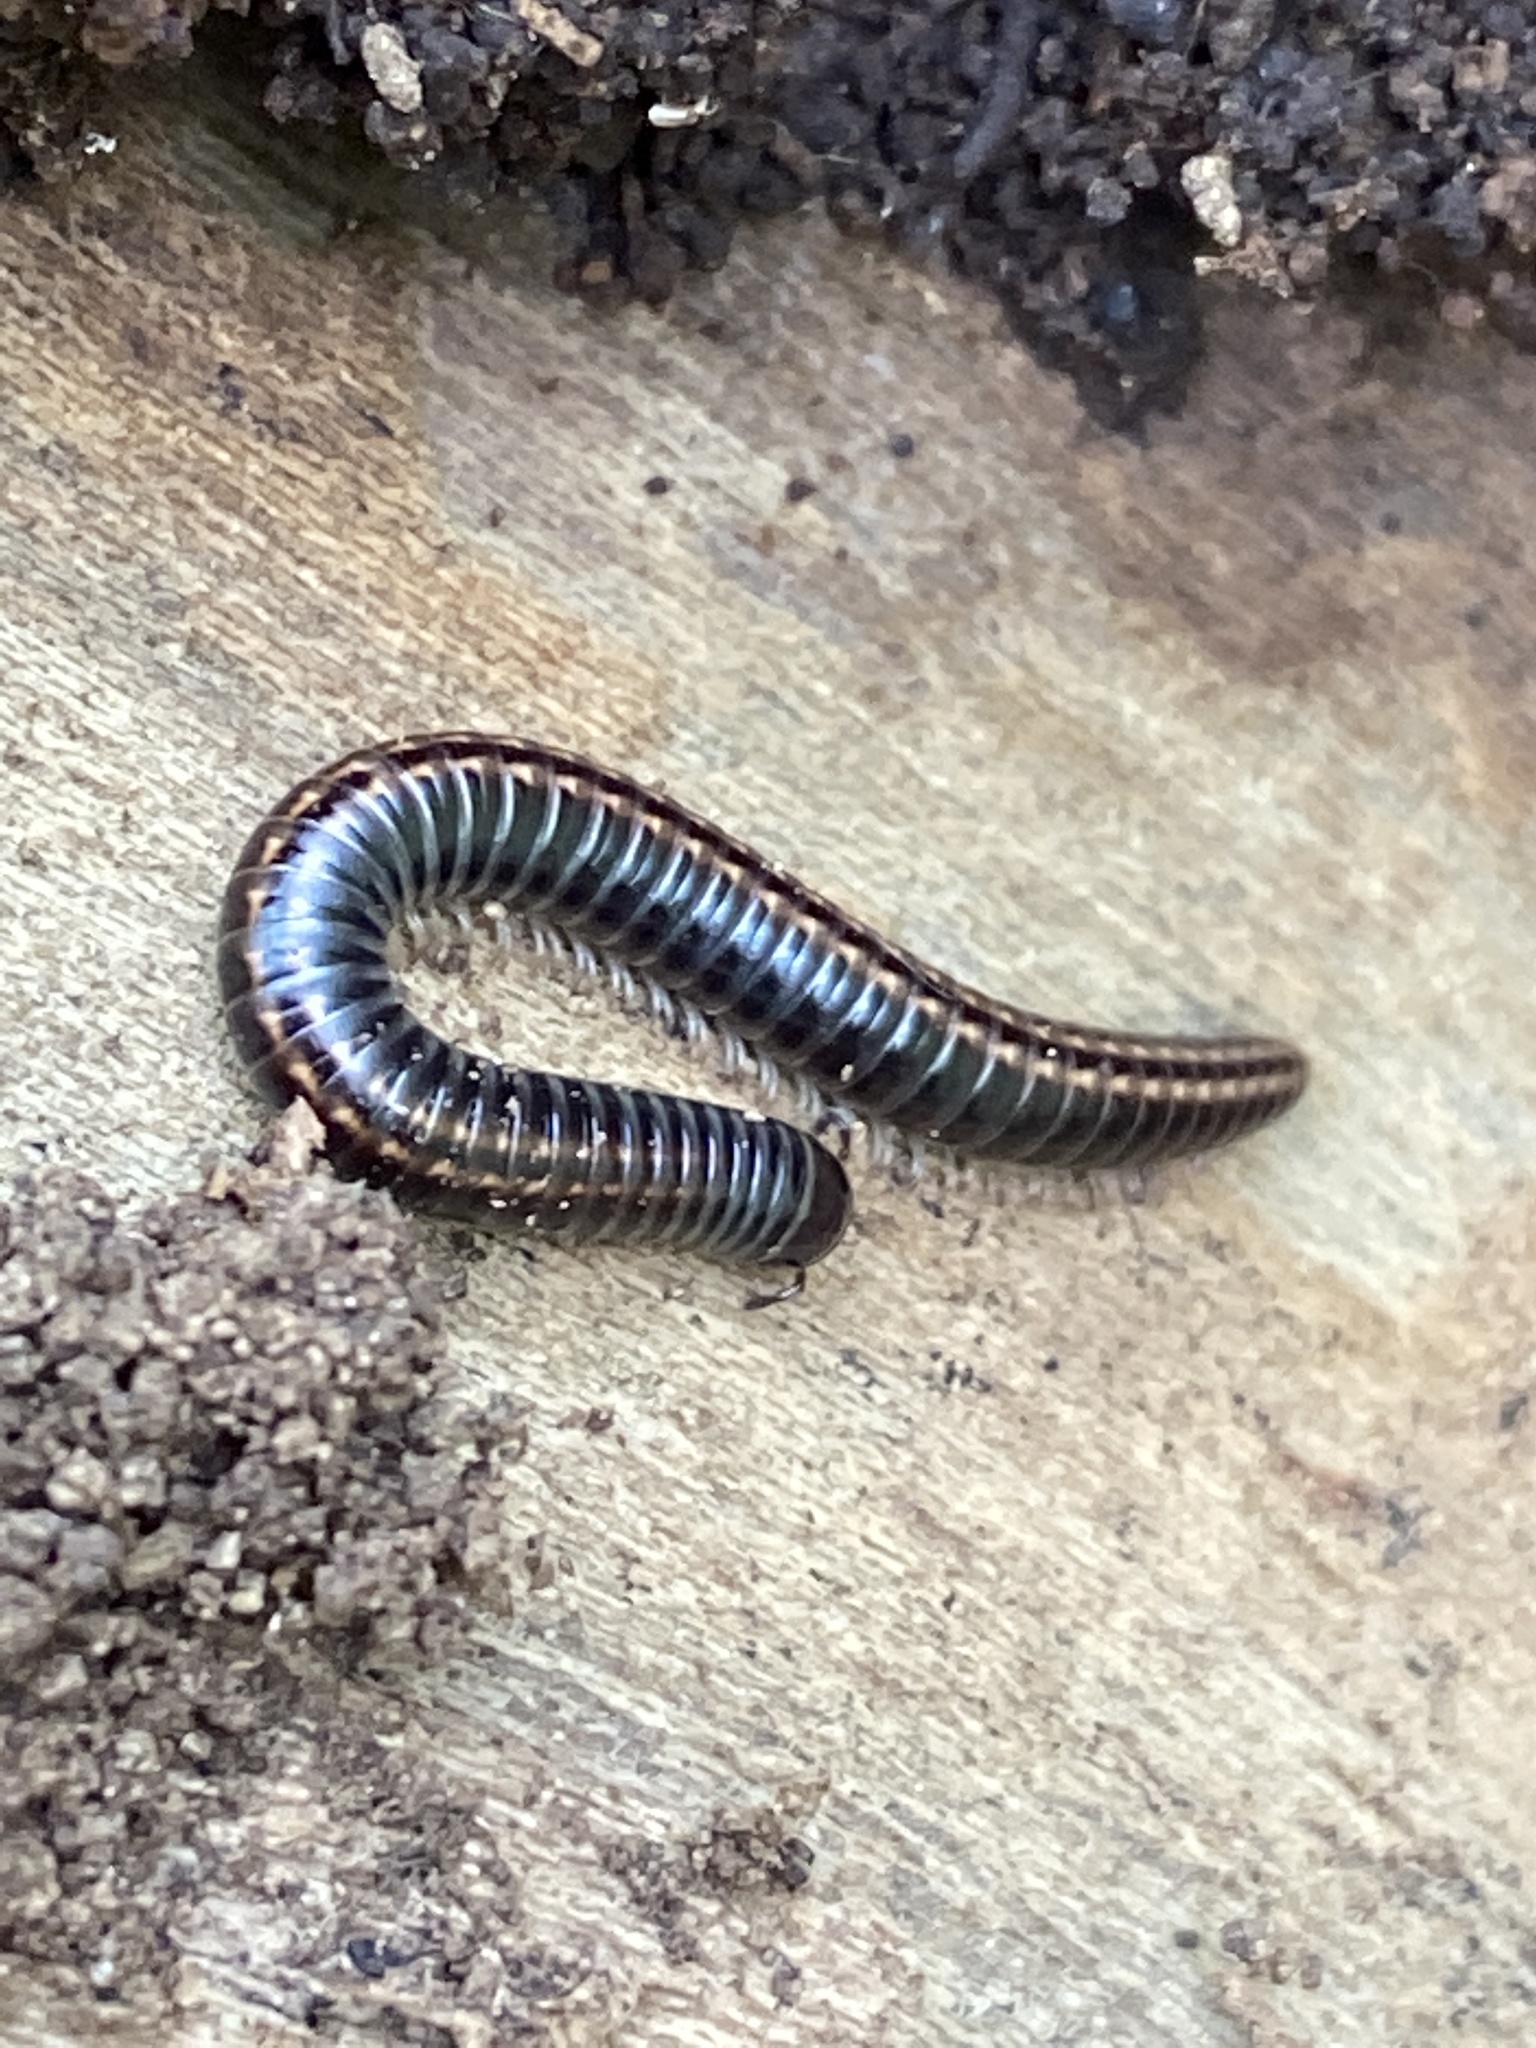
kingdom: Animalia
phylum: Arthropoda
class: Diplopoda
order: Julida
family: Julidae
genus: Ommatoiulus
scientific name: Ommatoiulus sabulosus
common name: Striped millipede
